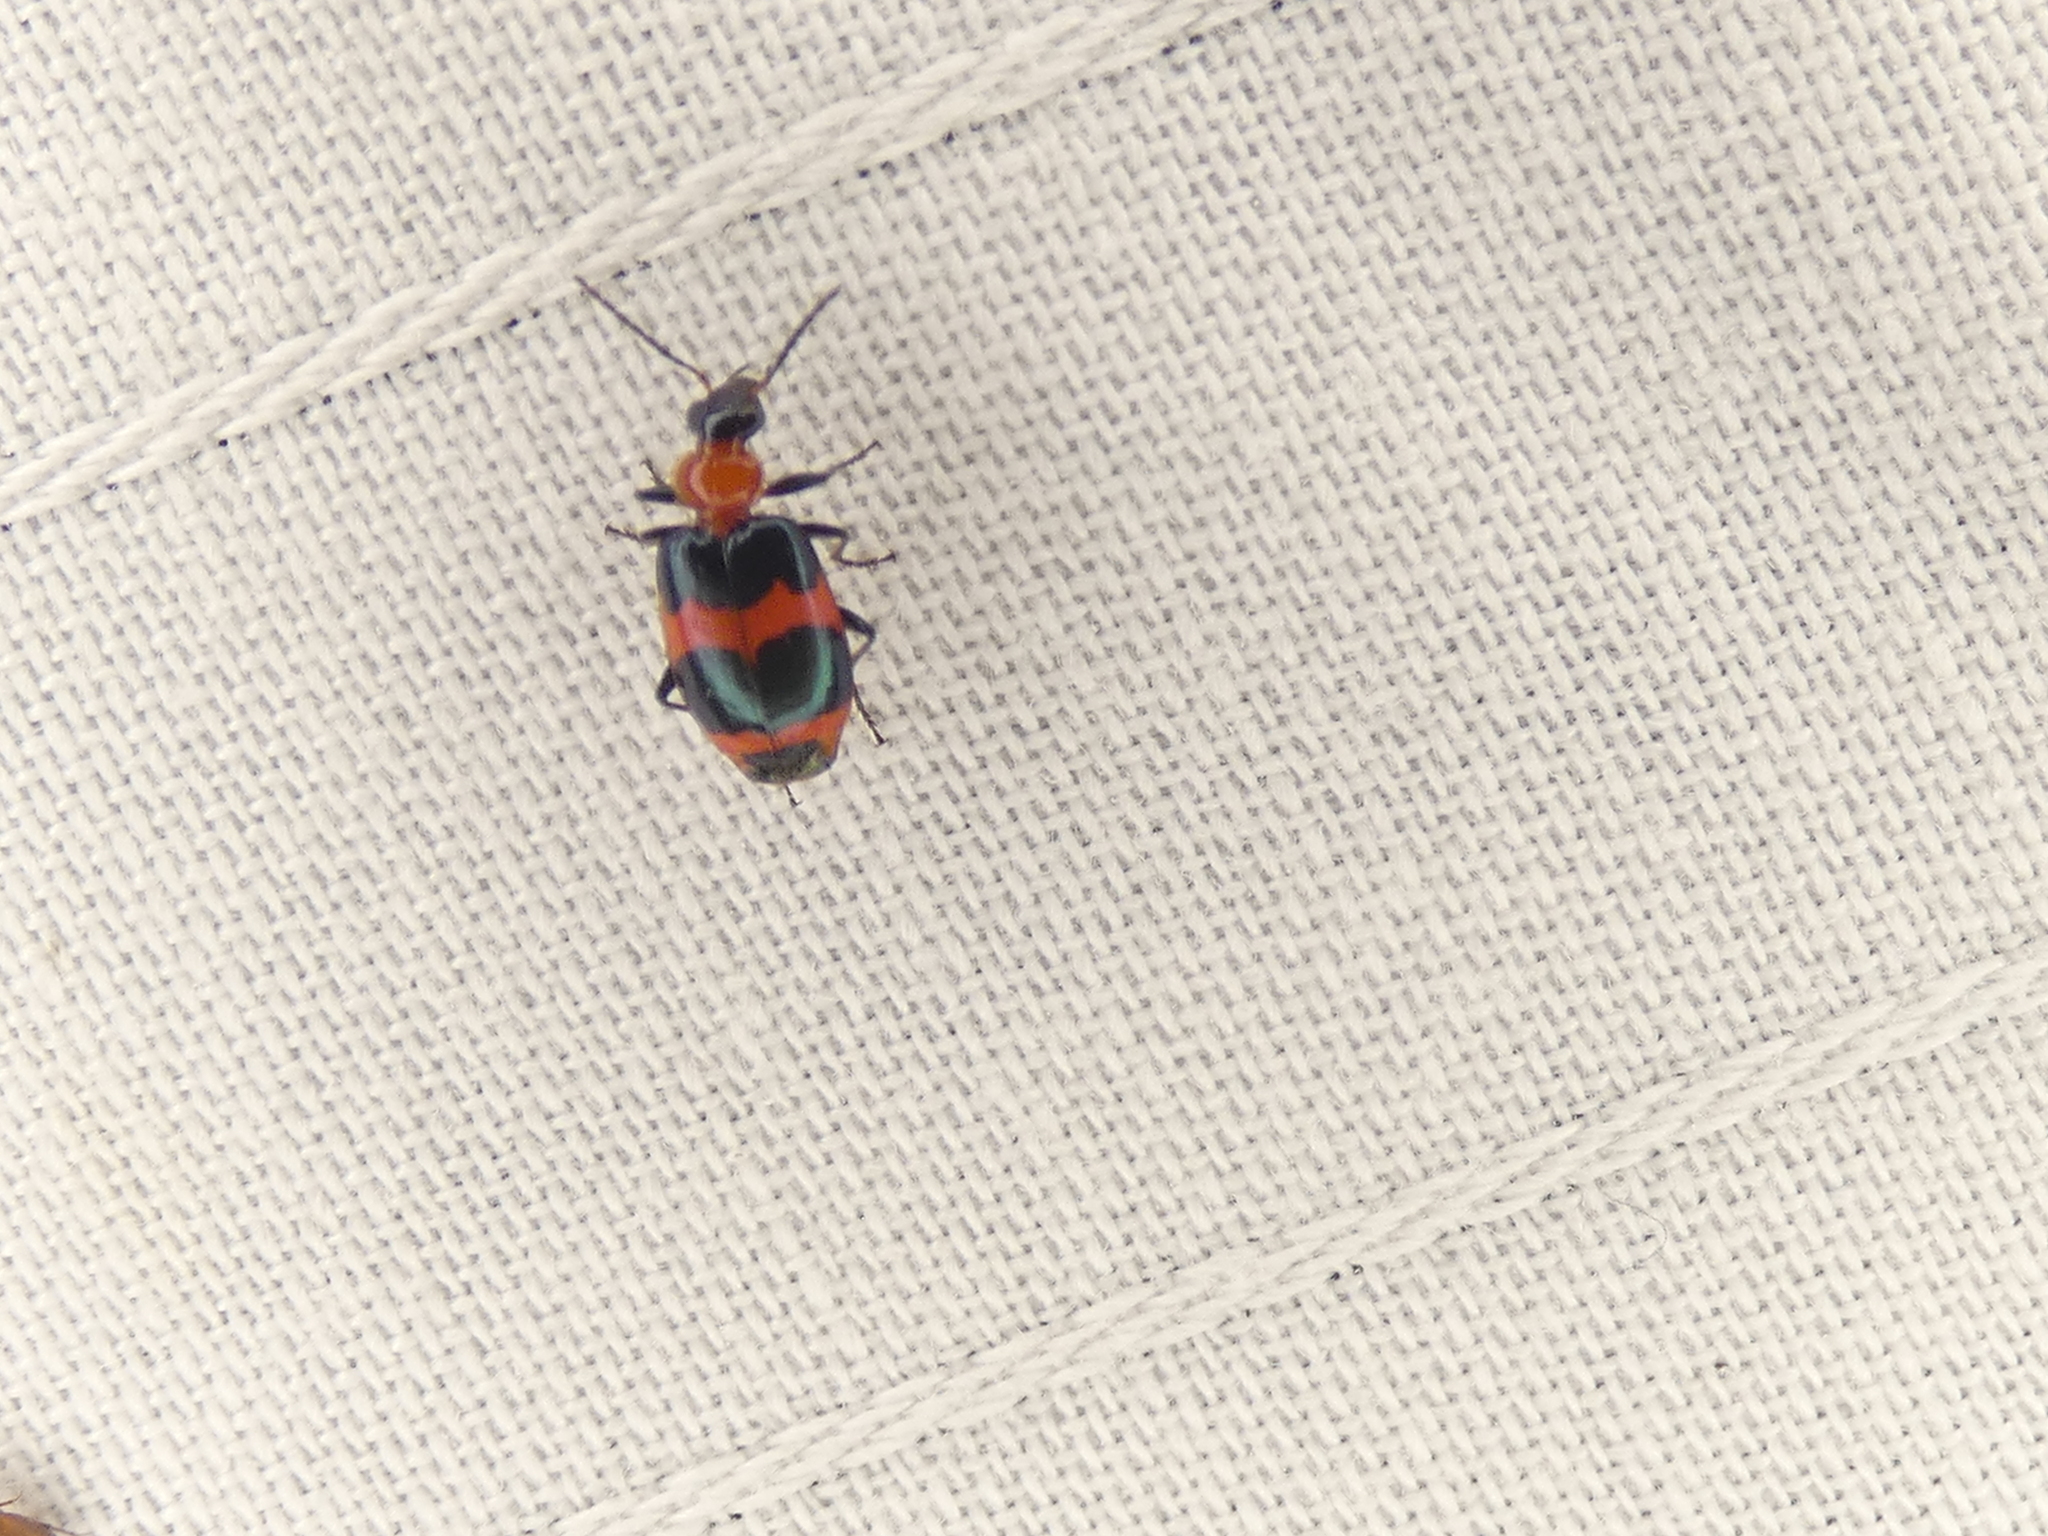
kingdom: Animalia
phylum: Arthropoda
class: Insecta
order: Coleoptera
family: Carabidae
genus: Lebia
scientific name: Lebia bitaeniata
